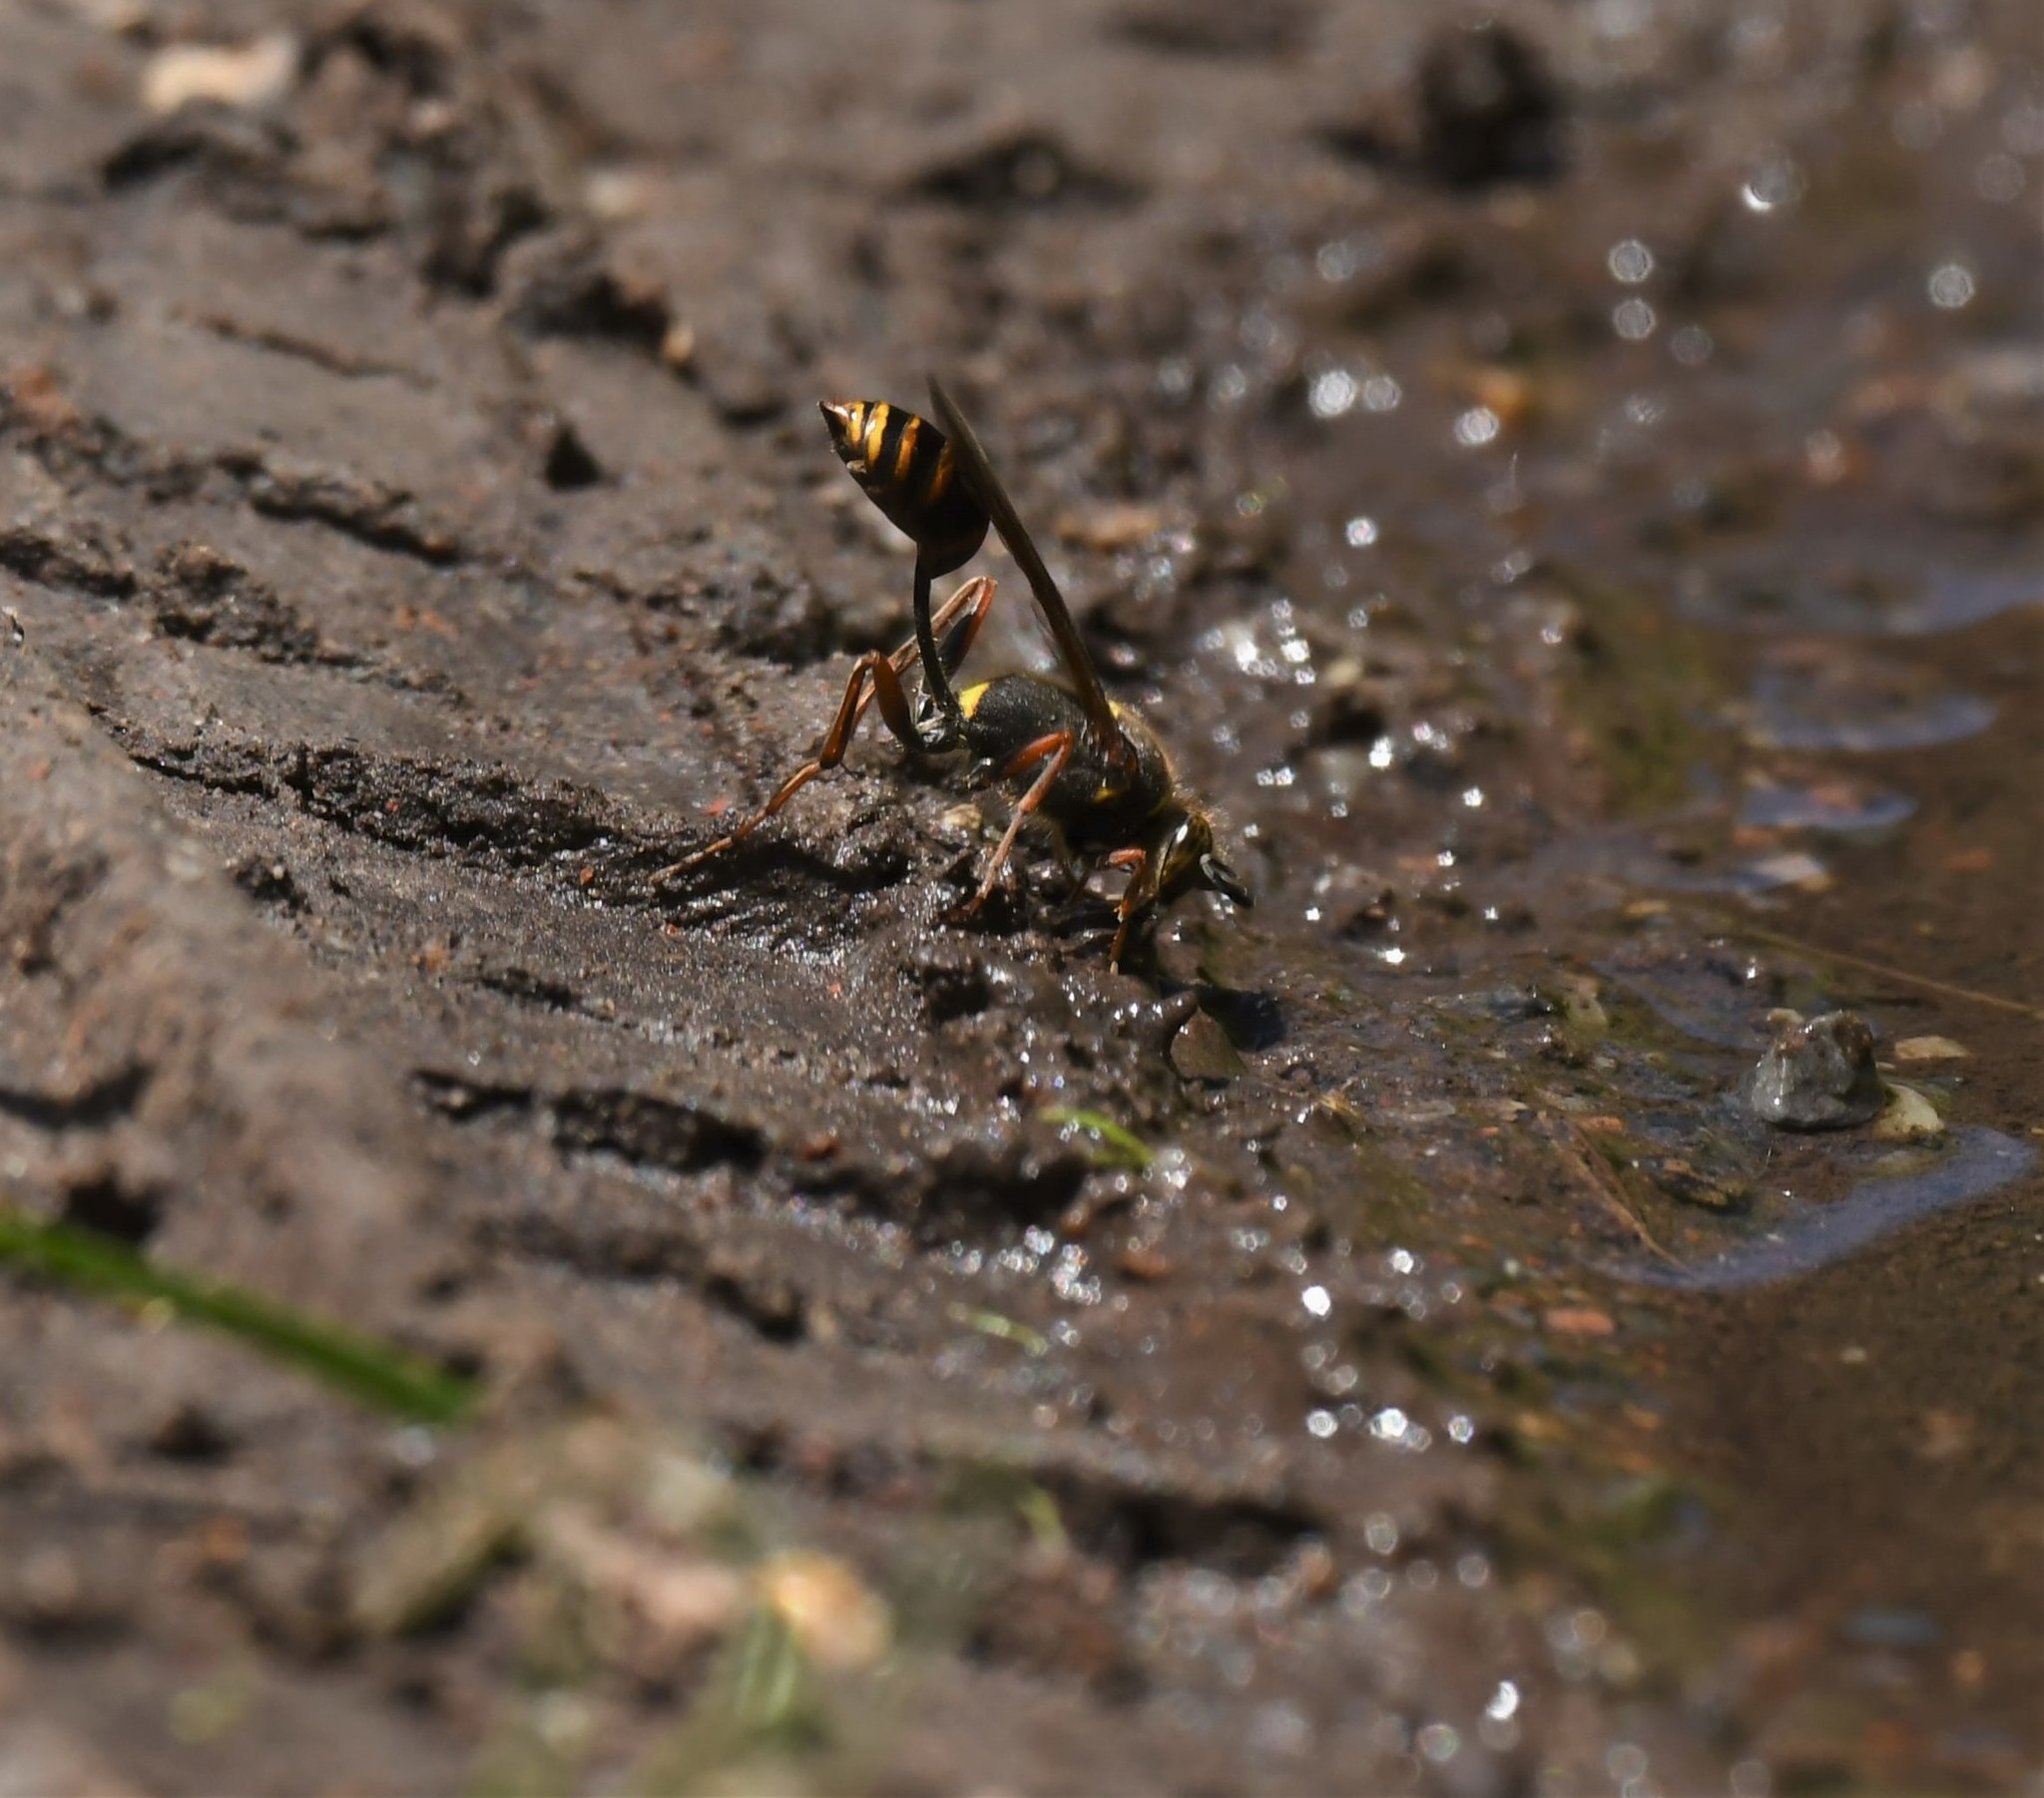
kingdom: Animalia
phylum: Arthropoda
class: Insecta
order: Hymenoptera
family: Sphecidae
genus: Sceliphron
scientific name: Sceliphron curvatum
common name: Pèlopèe
